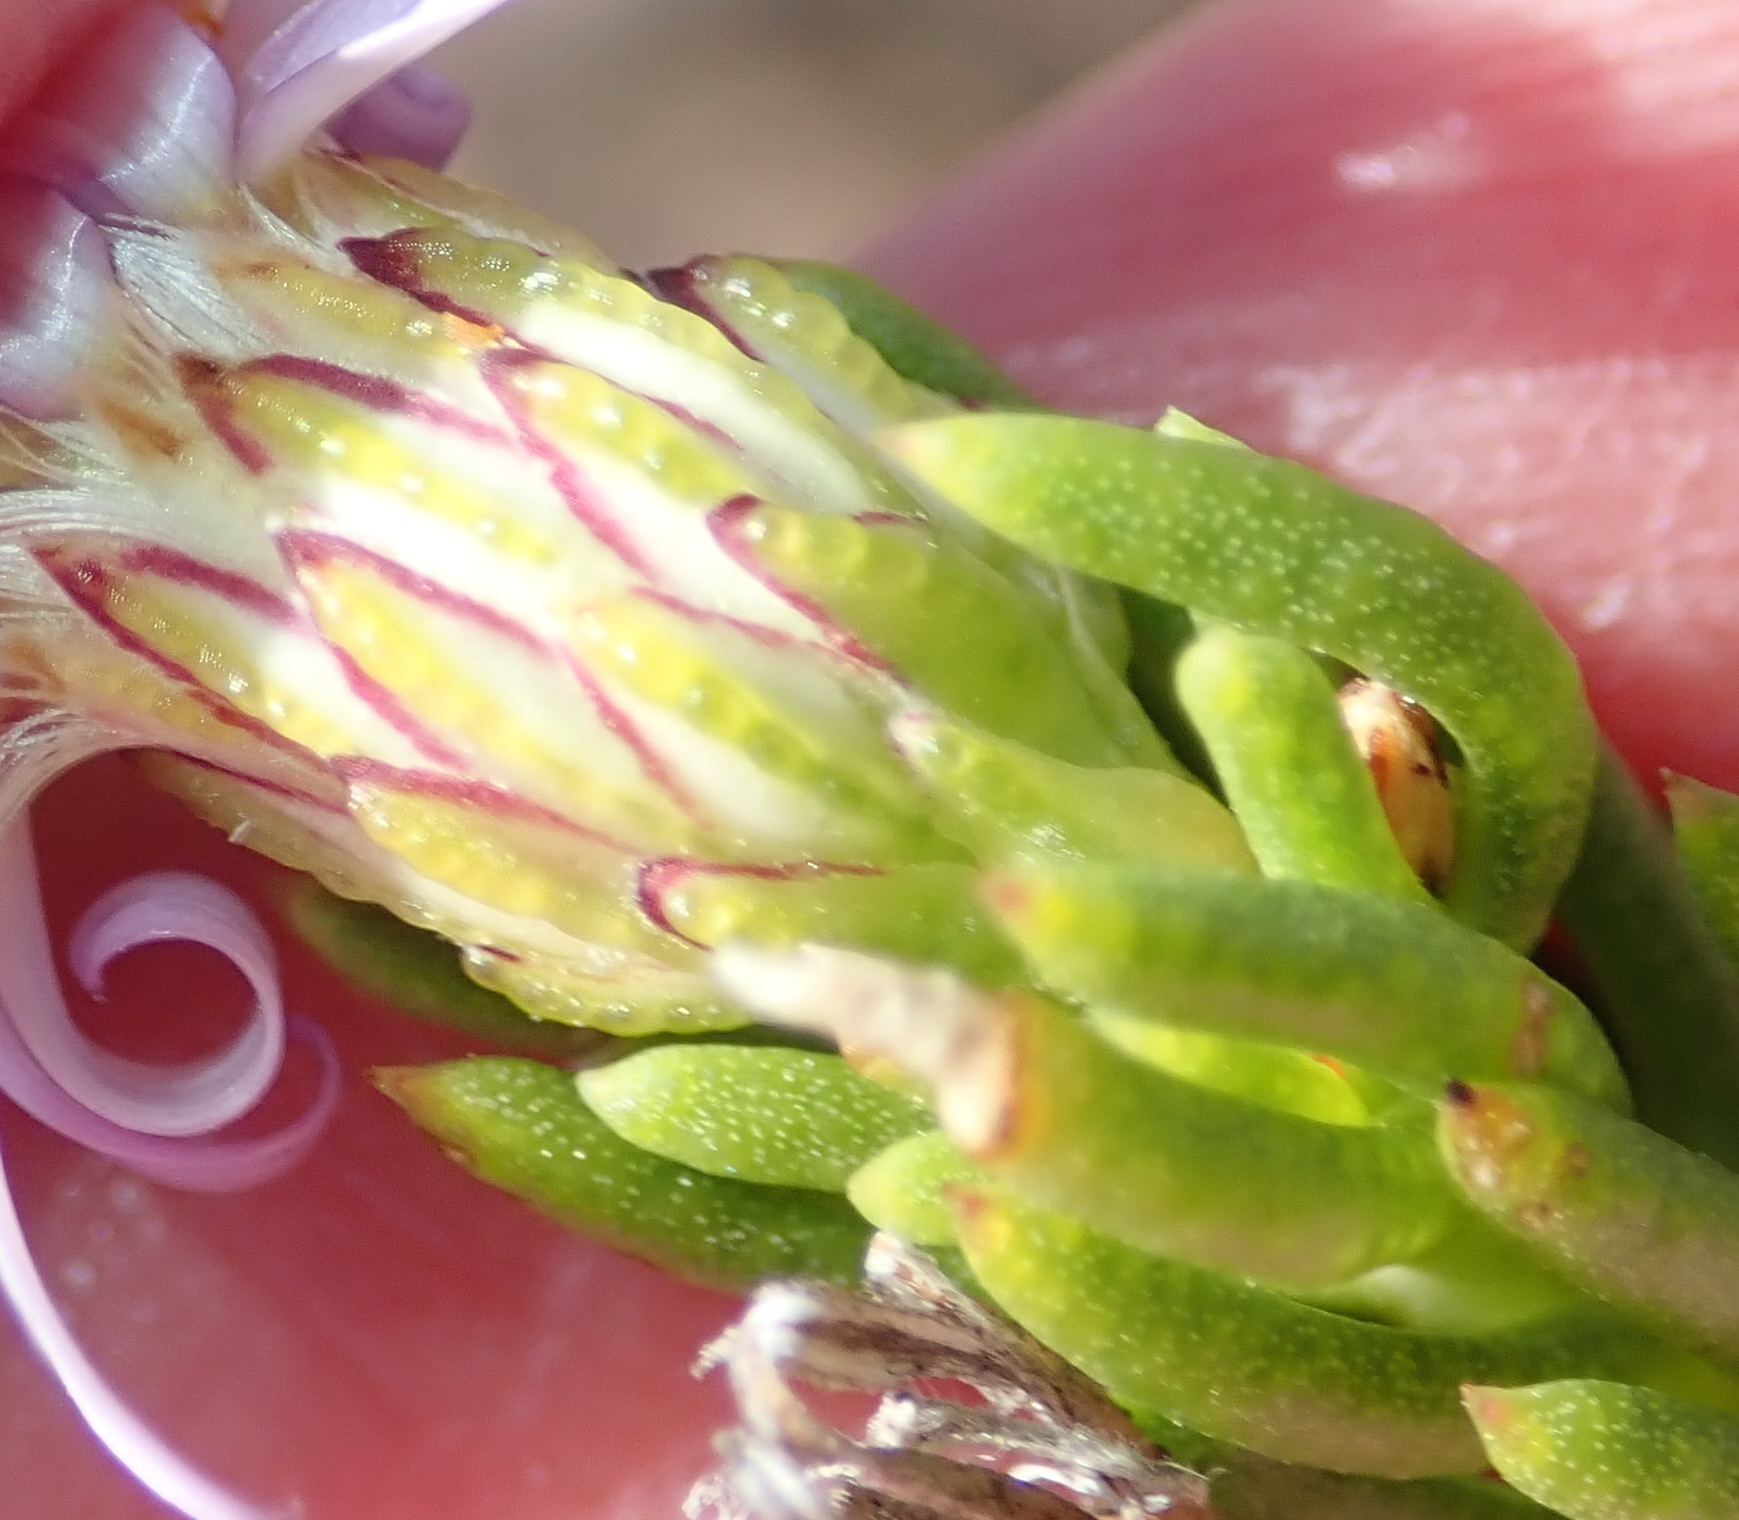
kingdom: Plantae
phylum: Tracheophyta
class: Magnoliopsida
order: Asterales
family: Asteraceae
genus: Felicia
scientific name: Felicia oleosa
